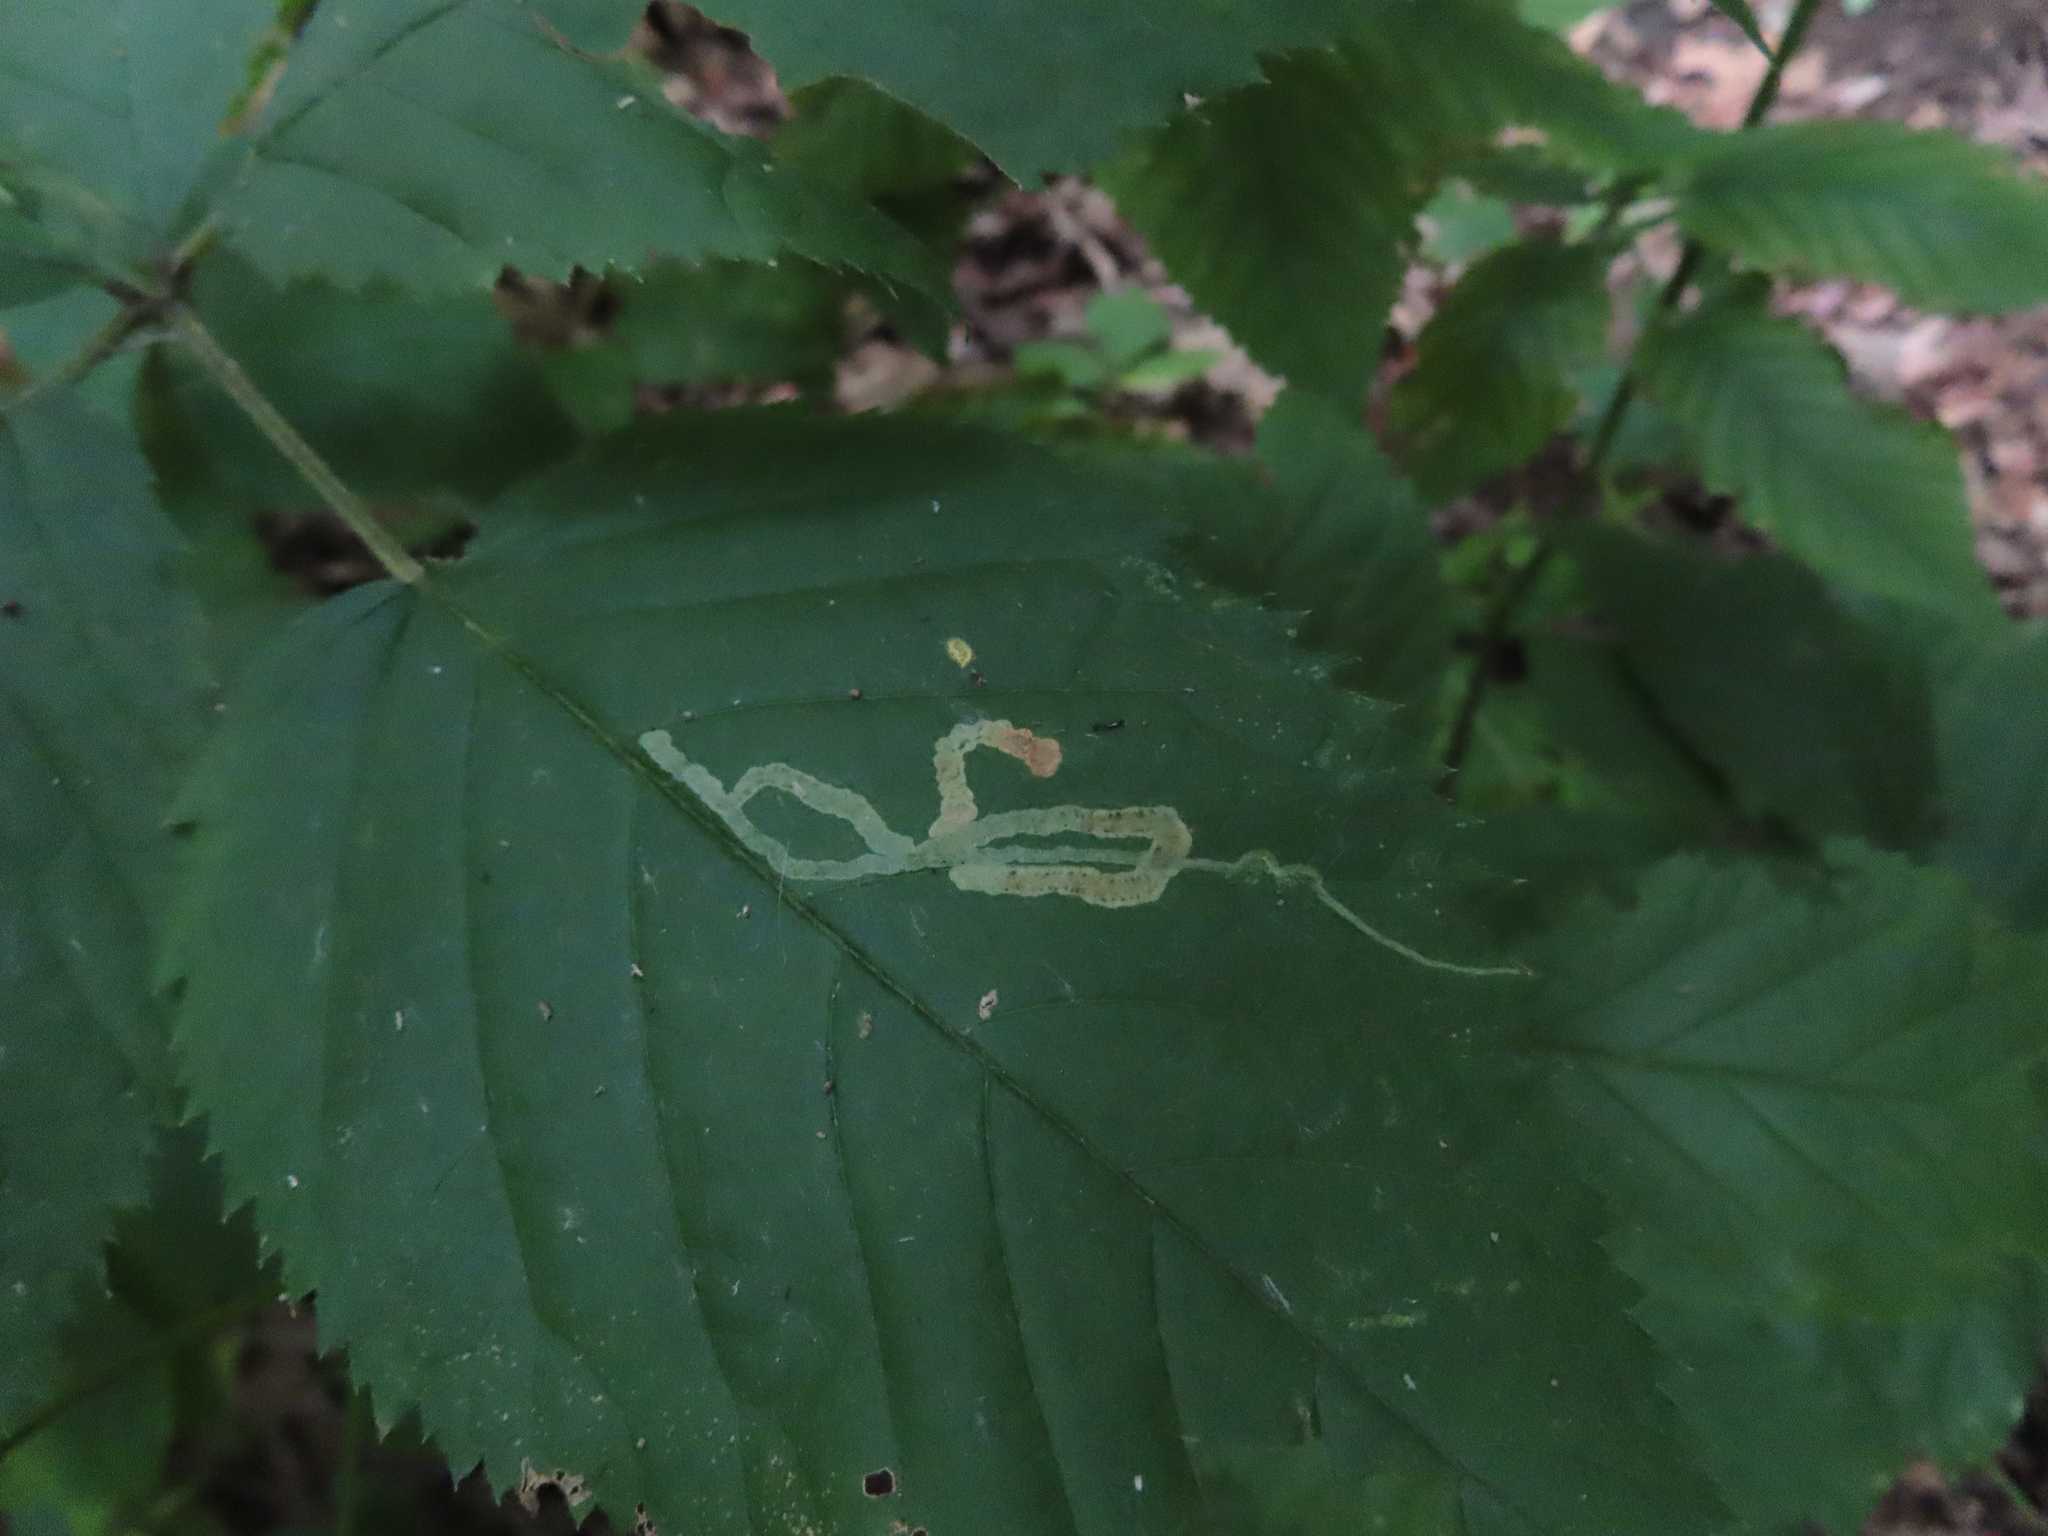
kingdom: Animalia
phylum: Arthropoda
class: Insecta
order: Diptera
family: Agromyzidae
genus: Agromyza
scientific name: Agromyza vockerothi
